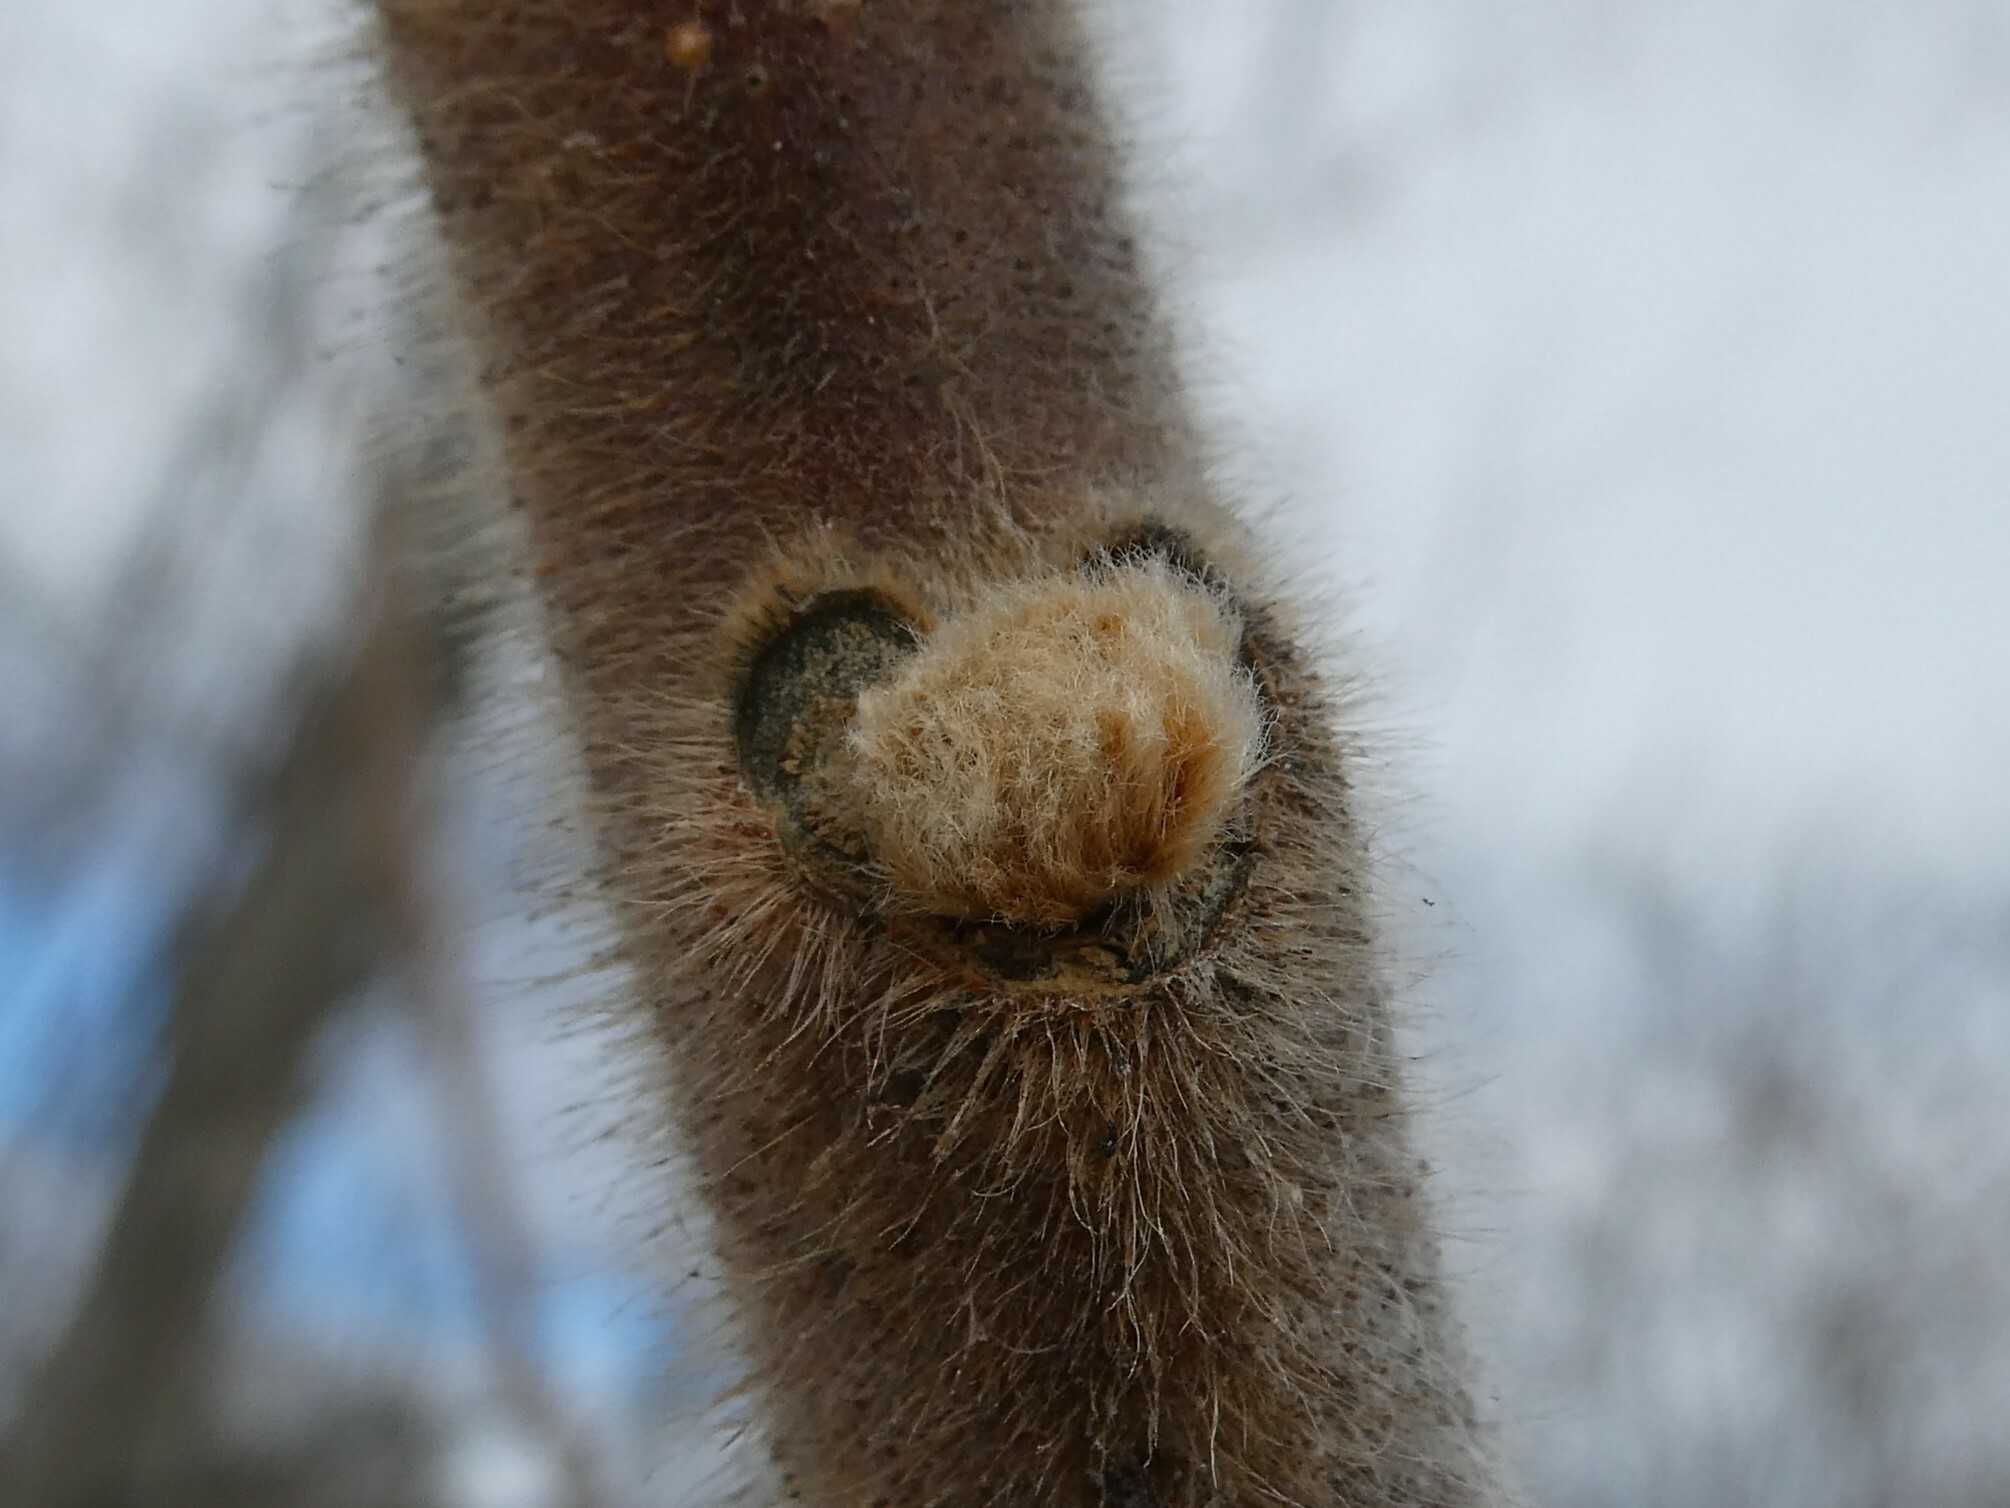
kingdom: Plantae
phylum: Tracheophyta
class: Magnoliopsida
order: Sapindales
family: Anacardiaceae
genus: Rhus
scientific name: Rhus typhina
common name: Staghorn sumac
